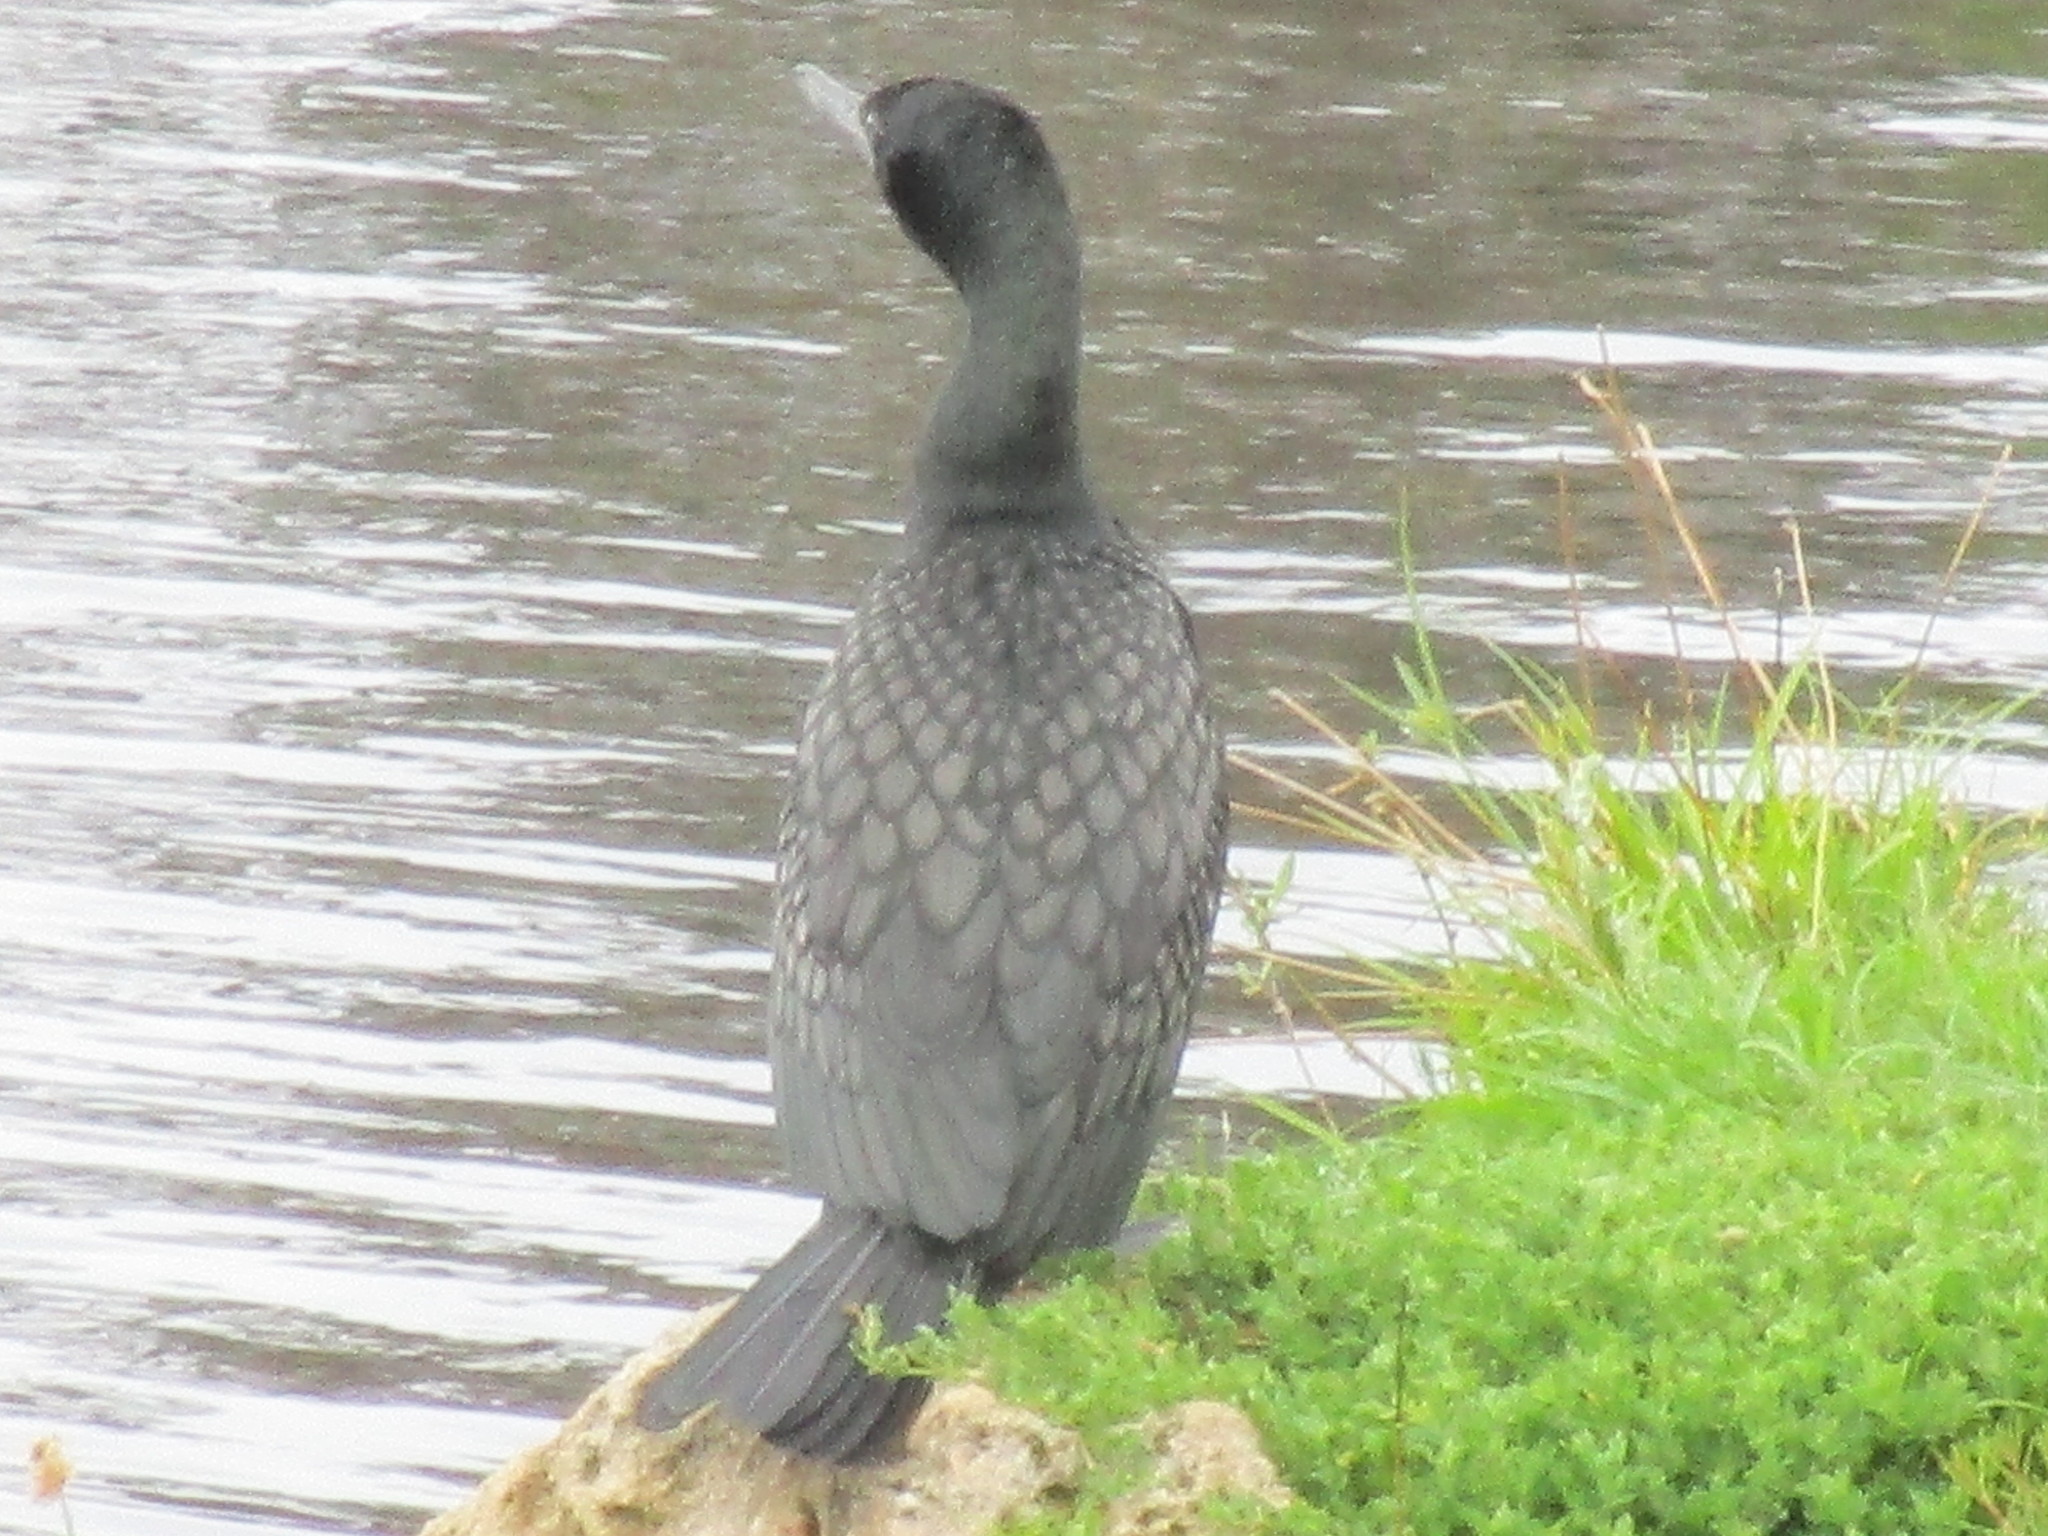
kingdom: Animalia
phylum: Chordata
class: Aves
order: Suliformes
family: Phalacrocoracidae
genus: Phalacrocorax
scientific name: Phalacrocorax sulcirostris
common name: Little black cormorant
